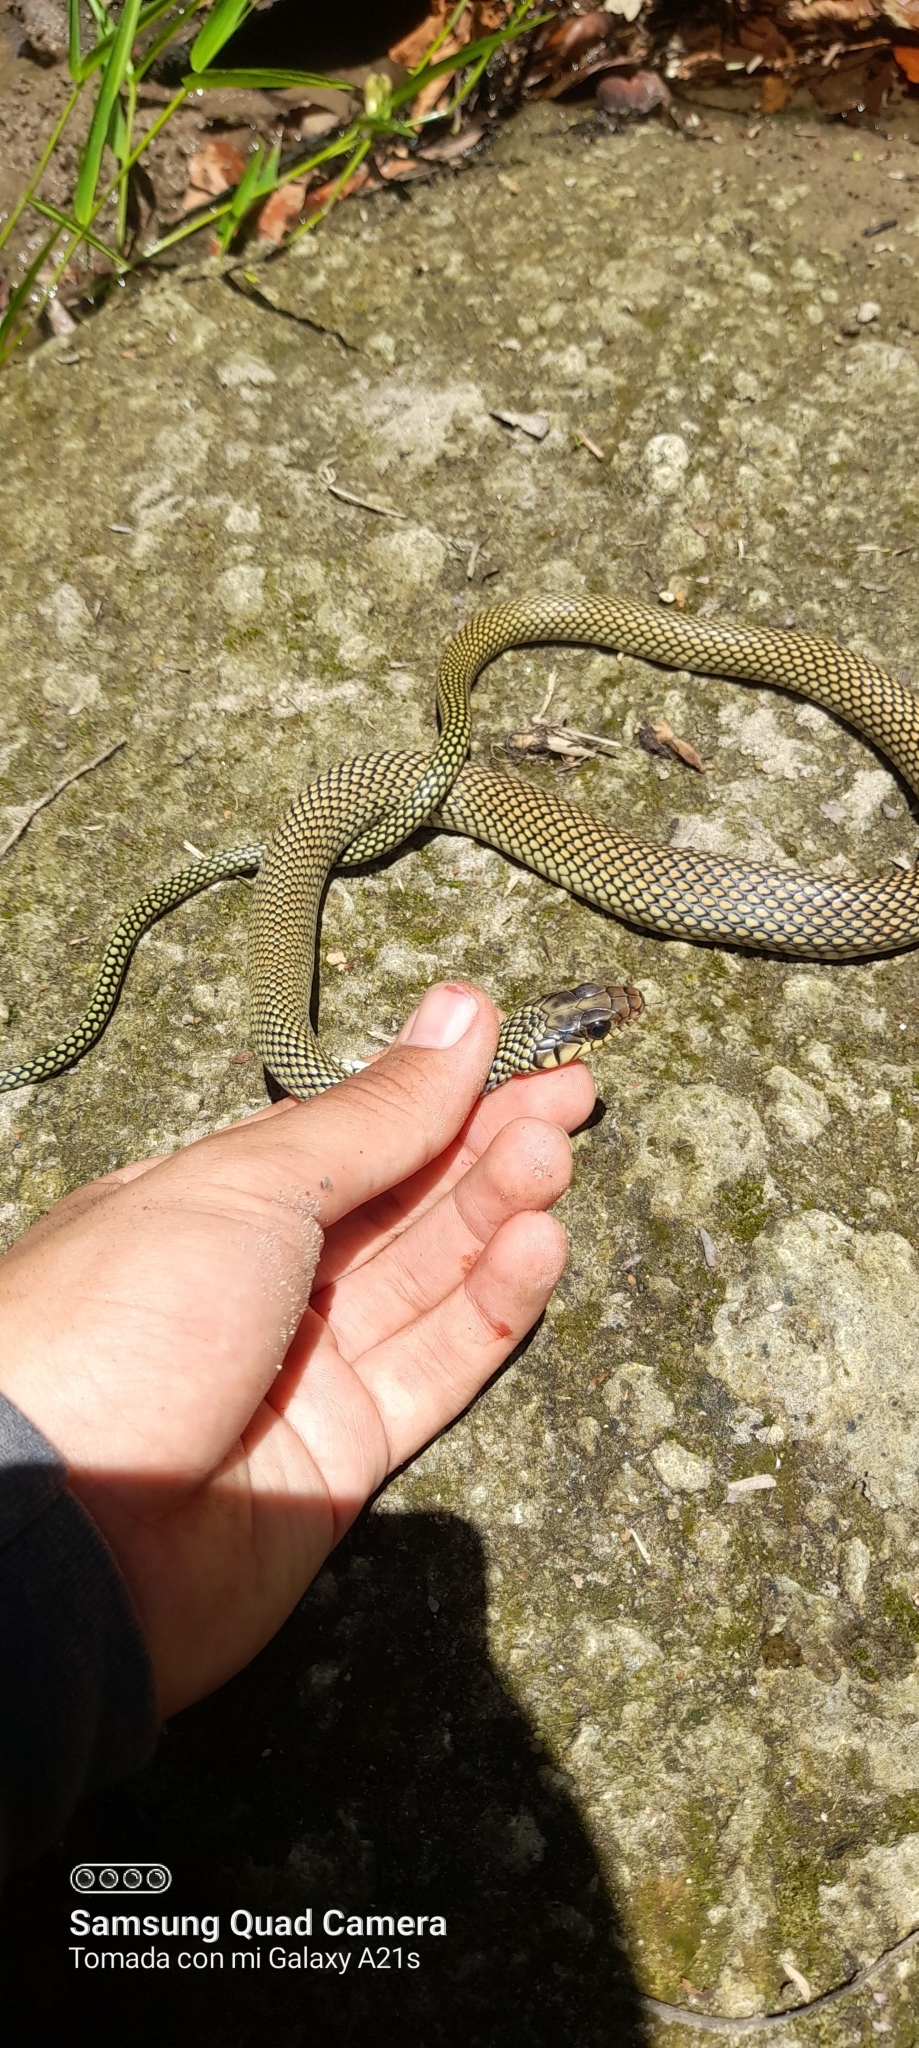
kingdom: Animalia
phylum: Chordata
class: Squamata
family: Colubridae
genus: Drymobius
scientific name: Drymobius margaritiferus
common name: Central american speckled racer
